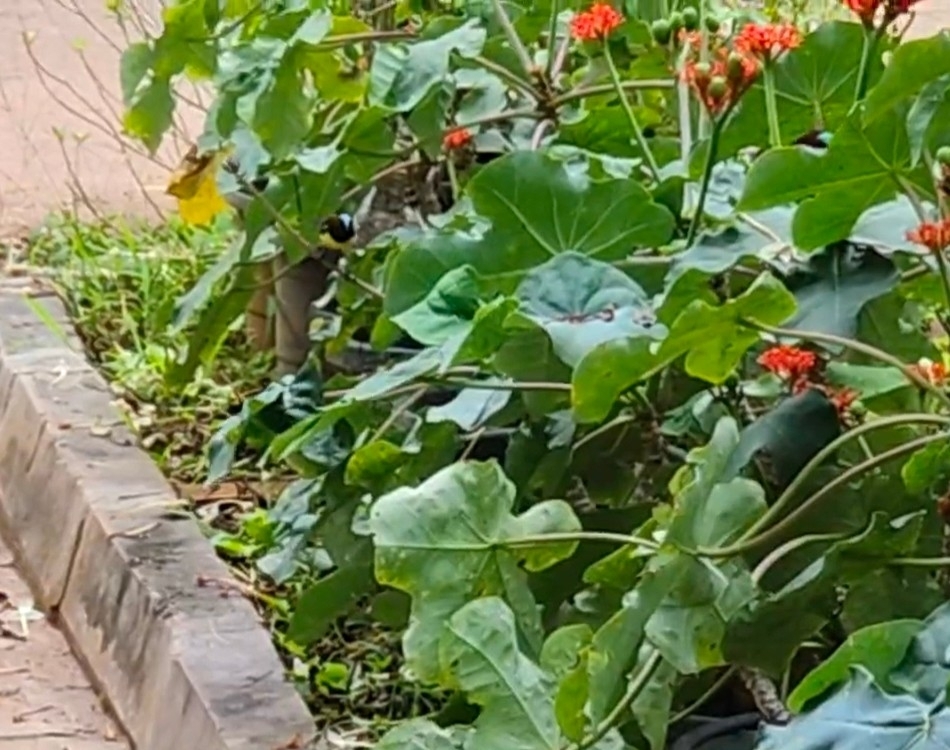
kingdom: Animalia
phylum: Chordata
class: Aves
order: Passeriformes
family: Nectariniidae
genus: Leptocoma
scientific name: Leptocoma zeylonica
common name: Purple-rumped sunbird
